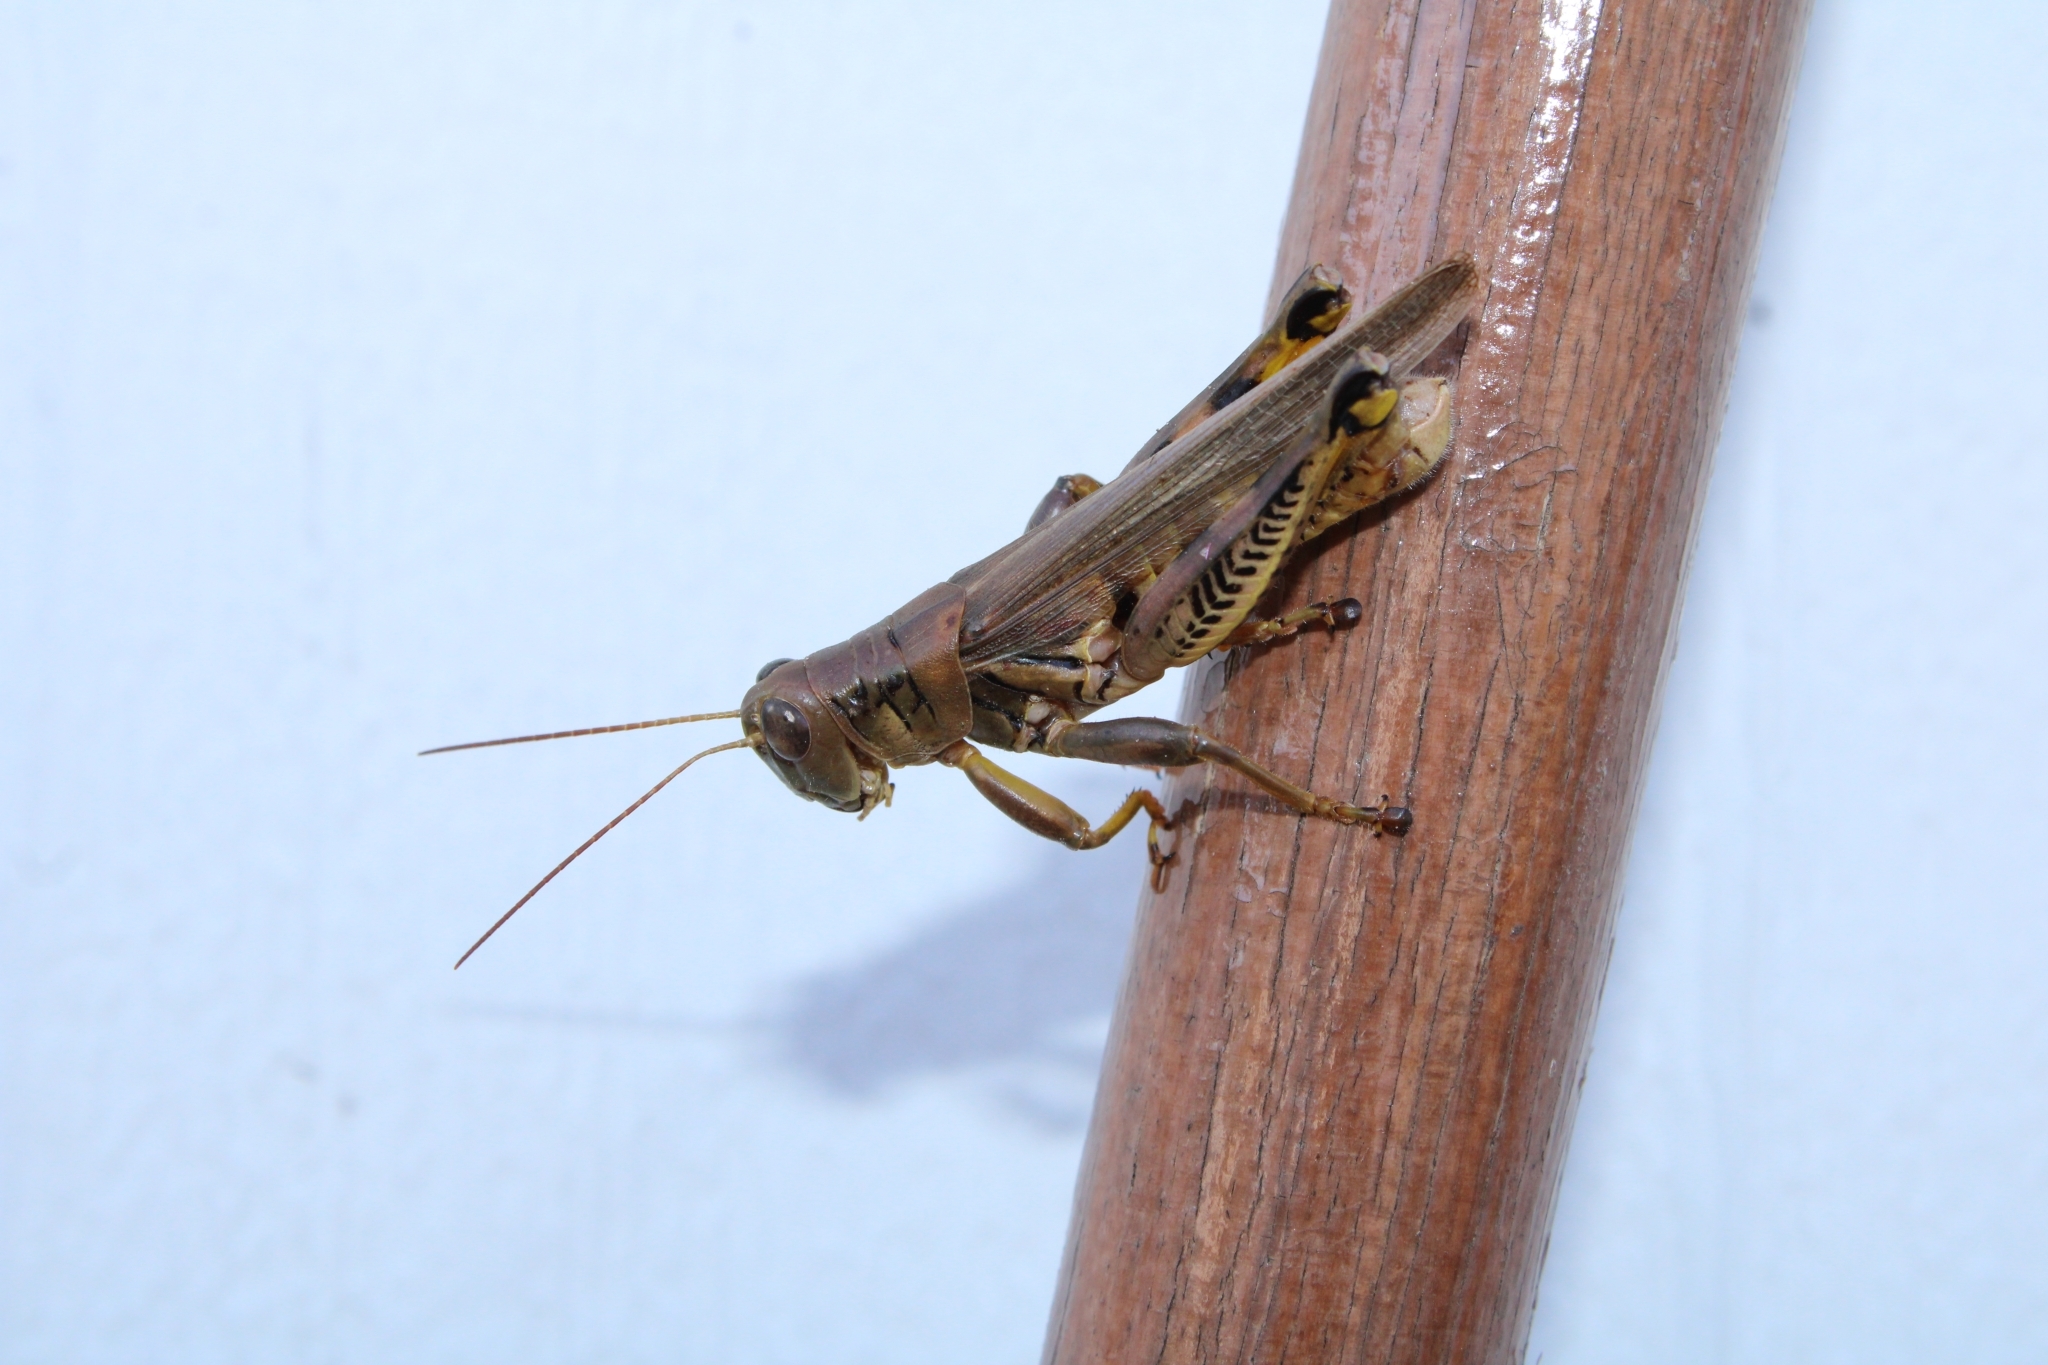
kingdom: Animalia
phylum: Arthropoda
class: Insecta
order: Orthoptera
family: Acrididae
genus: Melanoplus
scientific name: Melanoplus differentialis
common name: Differential grasshopper
